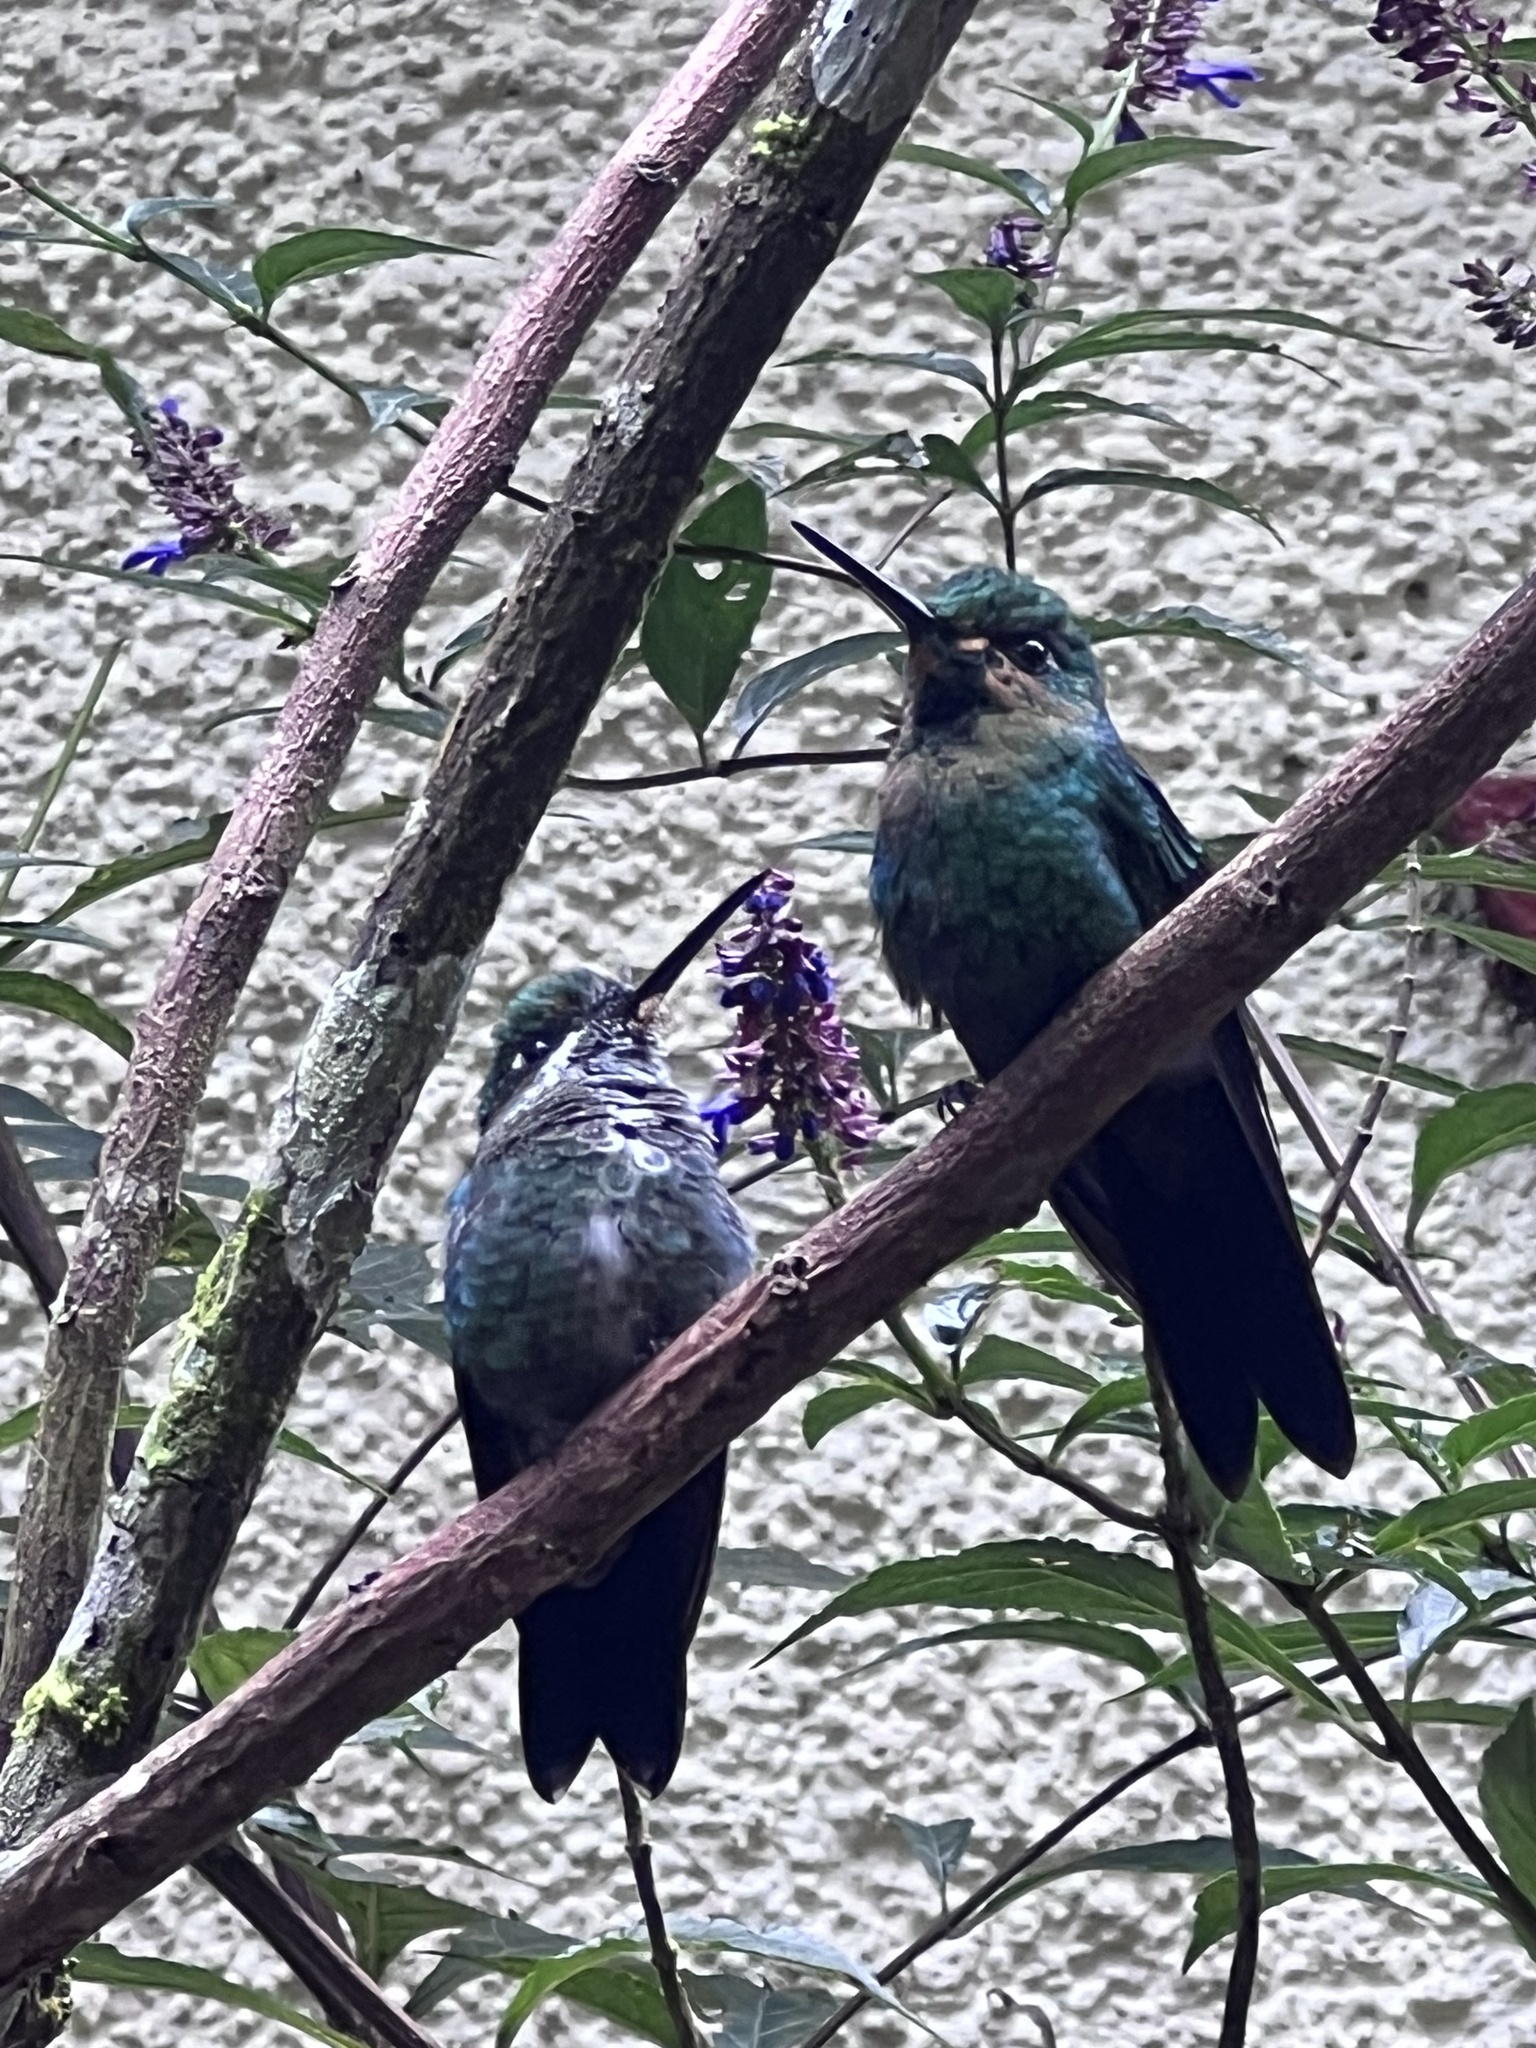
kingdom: Animalia
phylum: Chordata
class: Aves
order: Apodiformes
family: Trochilidae
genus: Heliodoxa
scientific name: Heliodoxa jacula
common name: Green-crowned brilliant
